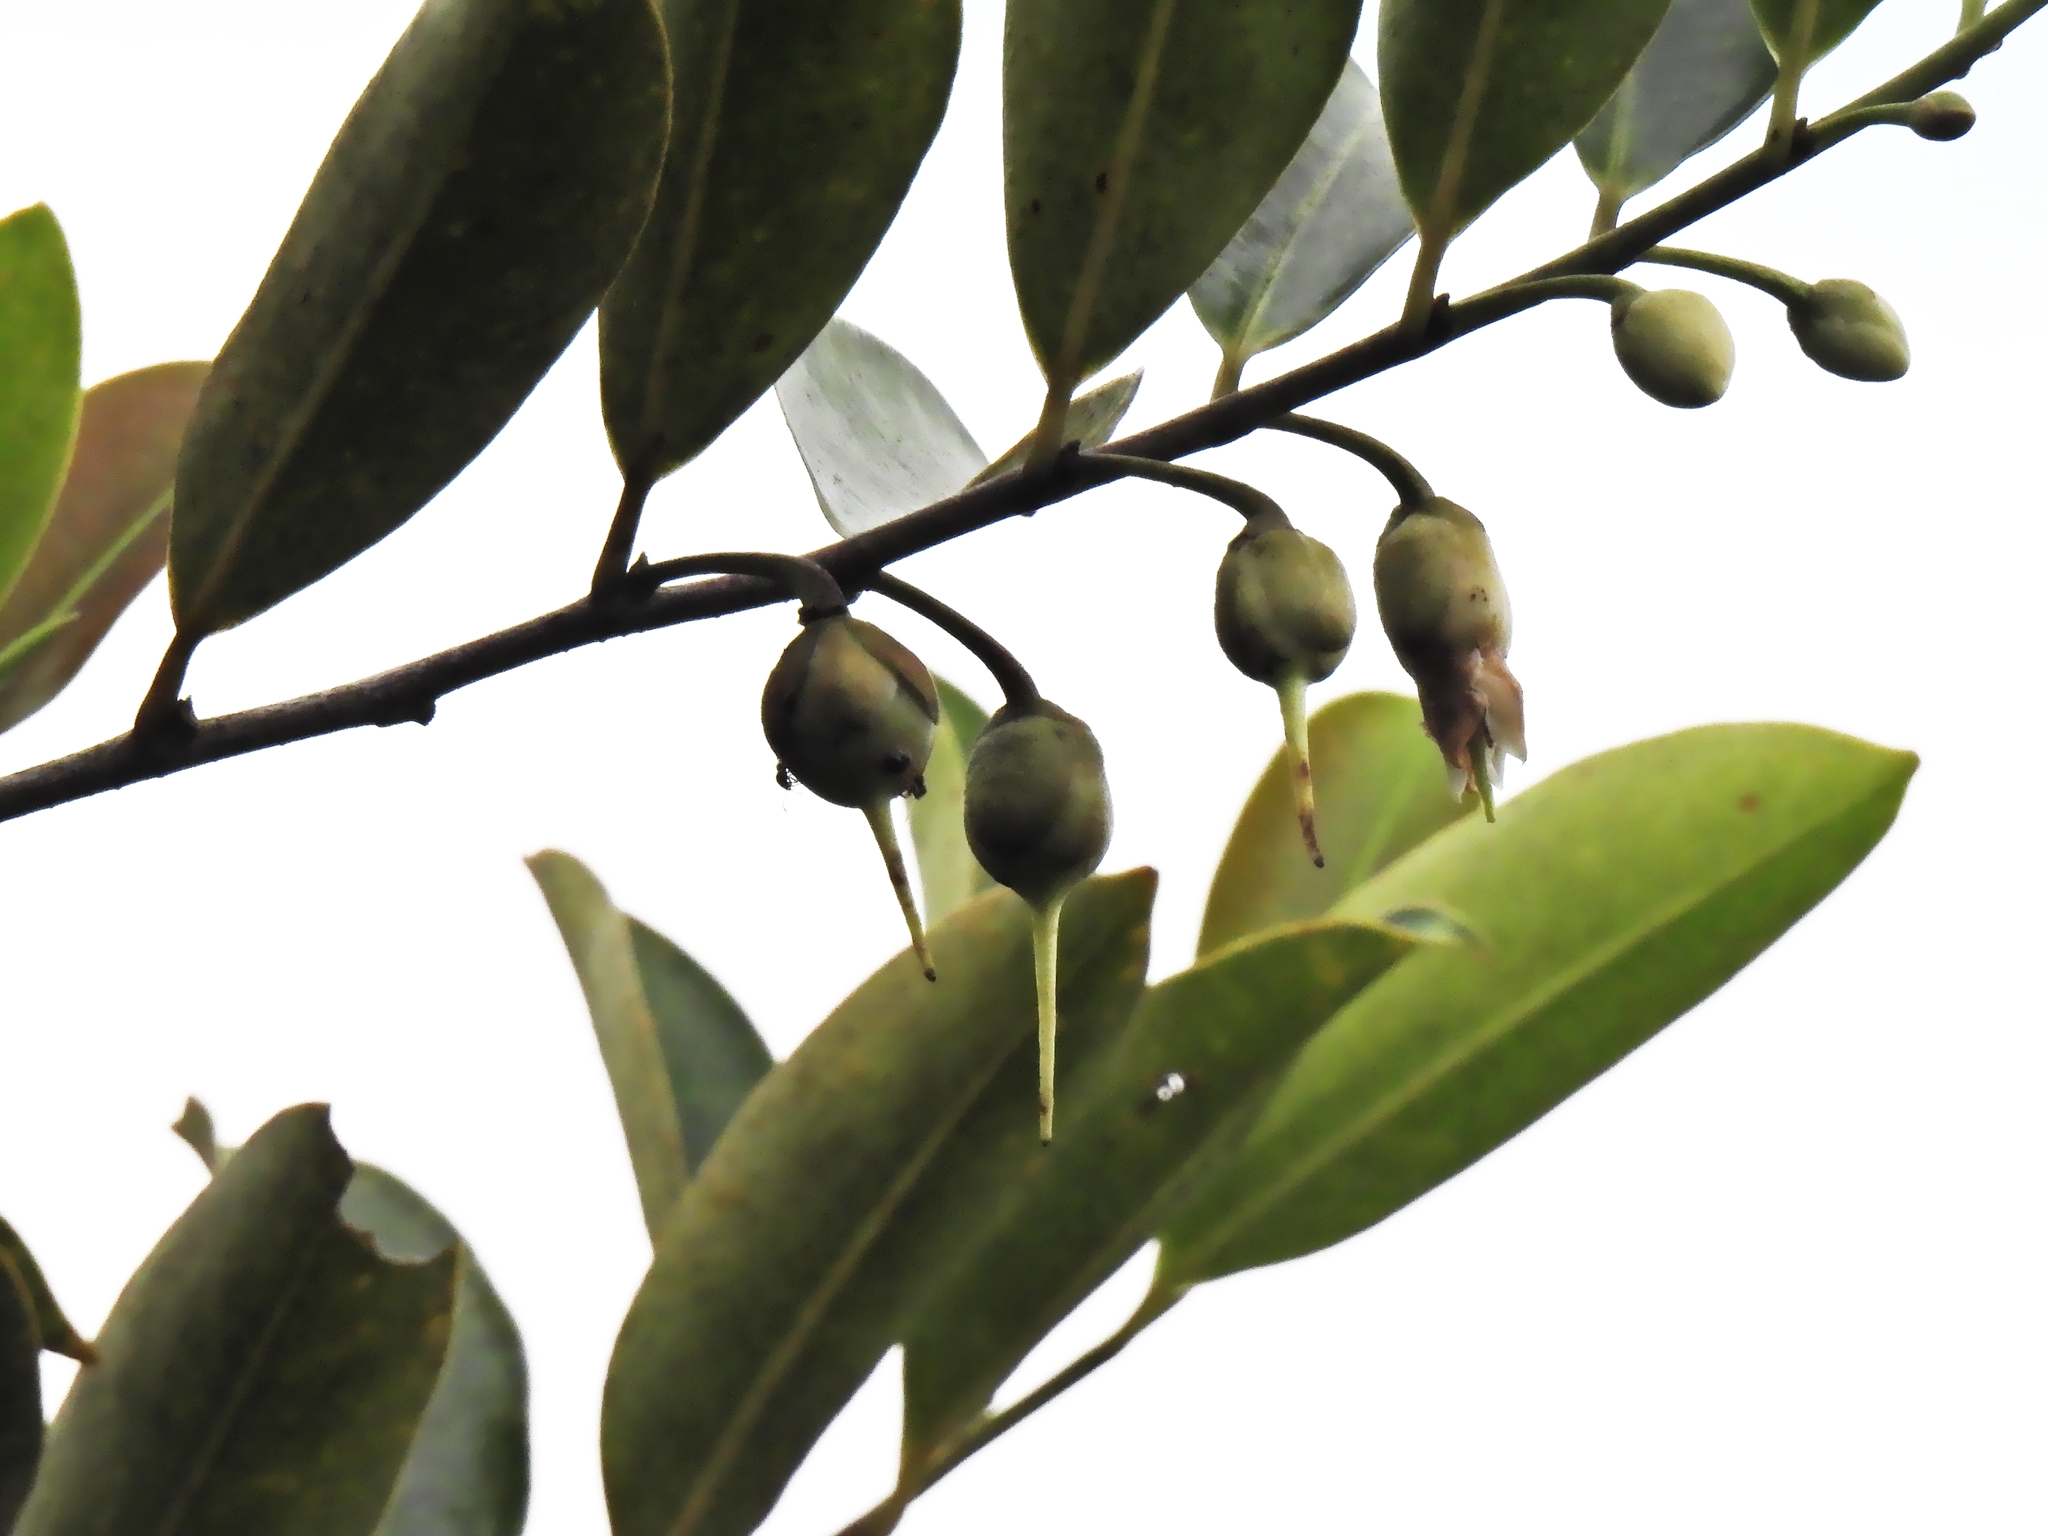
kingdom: Plantae
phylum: Tracheophyta
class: Magnoliopsida
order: Ericales
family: Pentaphylacaceae
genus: Adinandra
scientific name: Adinandra dumosa
